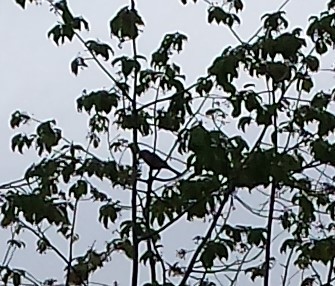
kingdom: Animalia
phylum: Chordata
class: Aves
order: Passeriformes
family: Corvidae
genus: Garrulus
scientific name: Garrulus glandarius
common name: Eurasian jay
